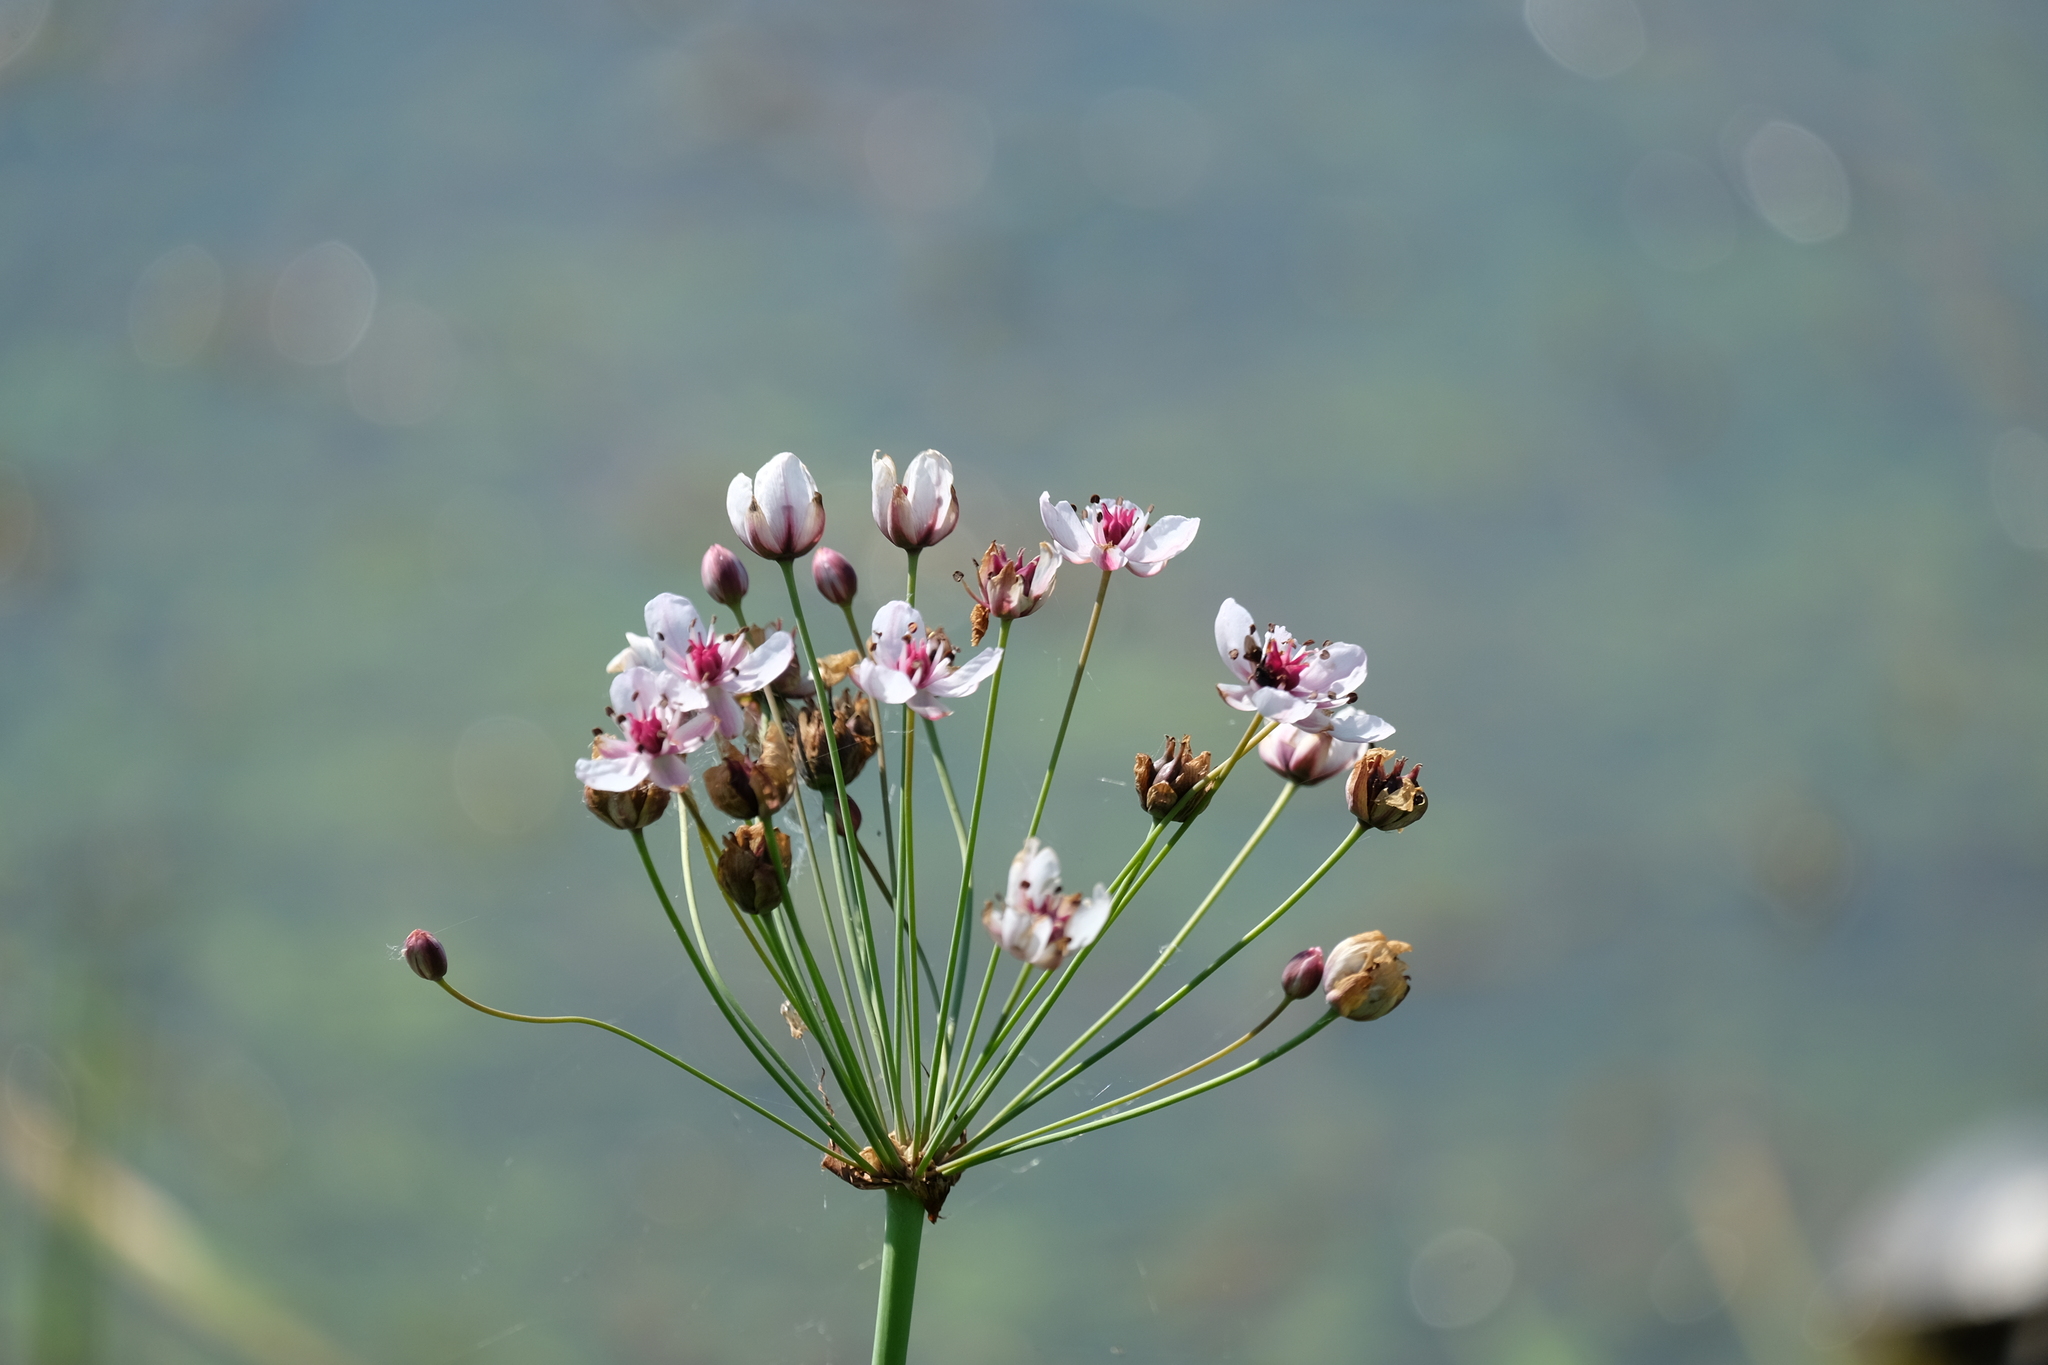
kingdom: Plantae
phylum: Tracheophyta
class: Liliopsida
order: Alismatales
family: Butomaceae
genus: Butomus
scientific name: Butomus umbellatus
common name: Flowering-rush
